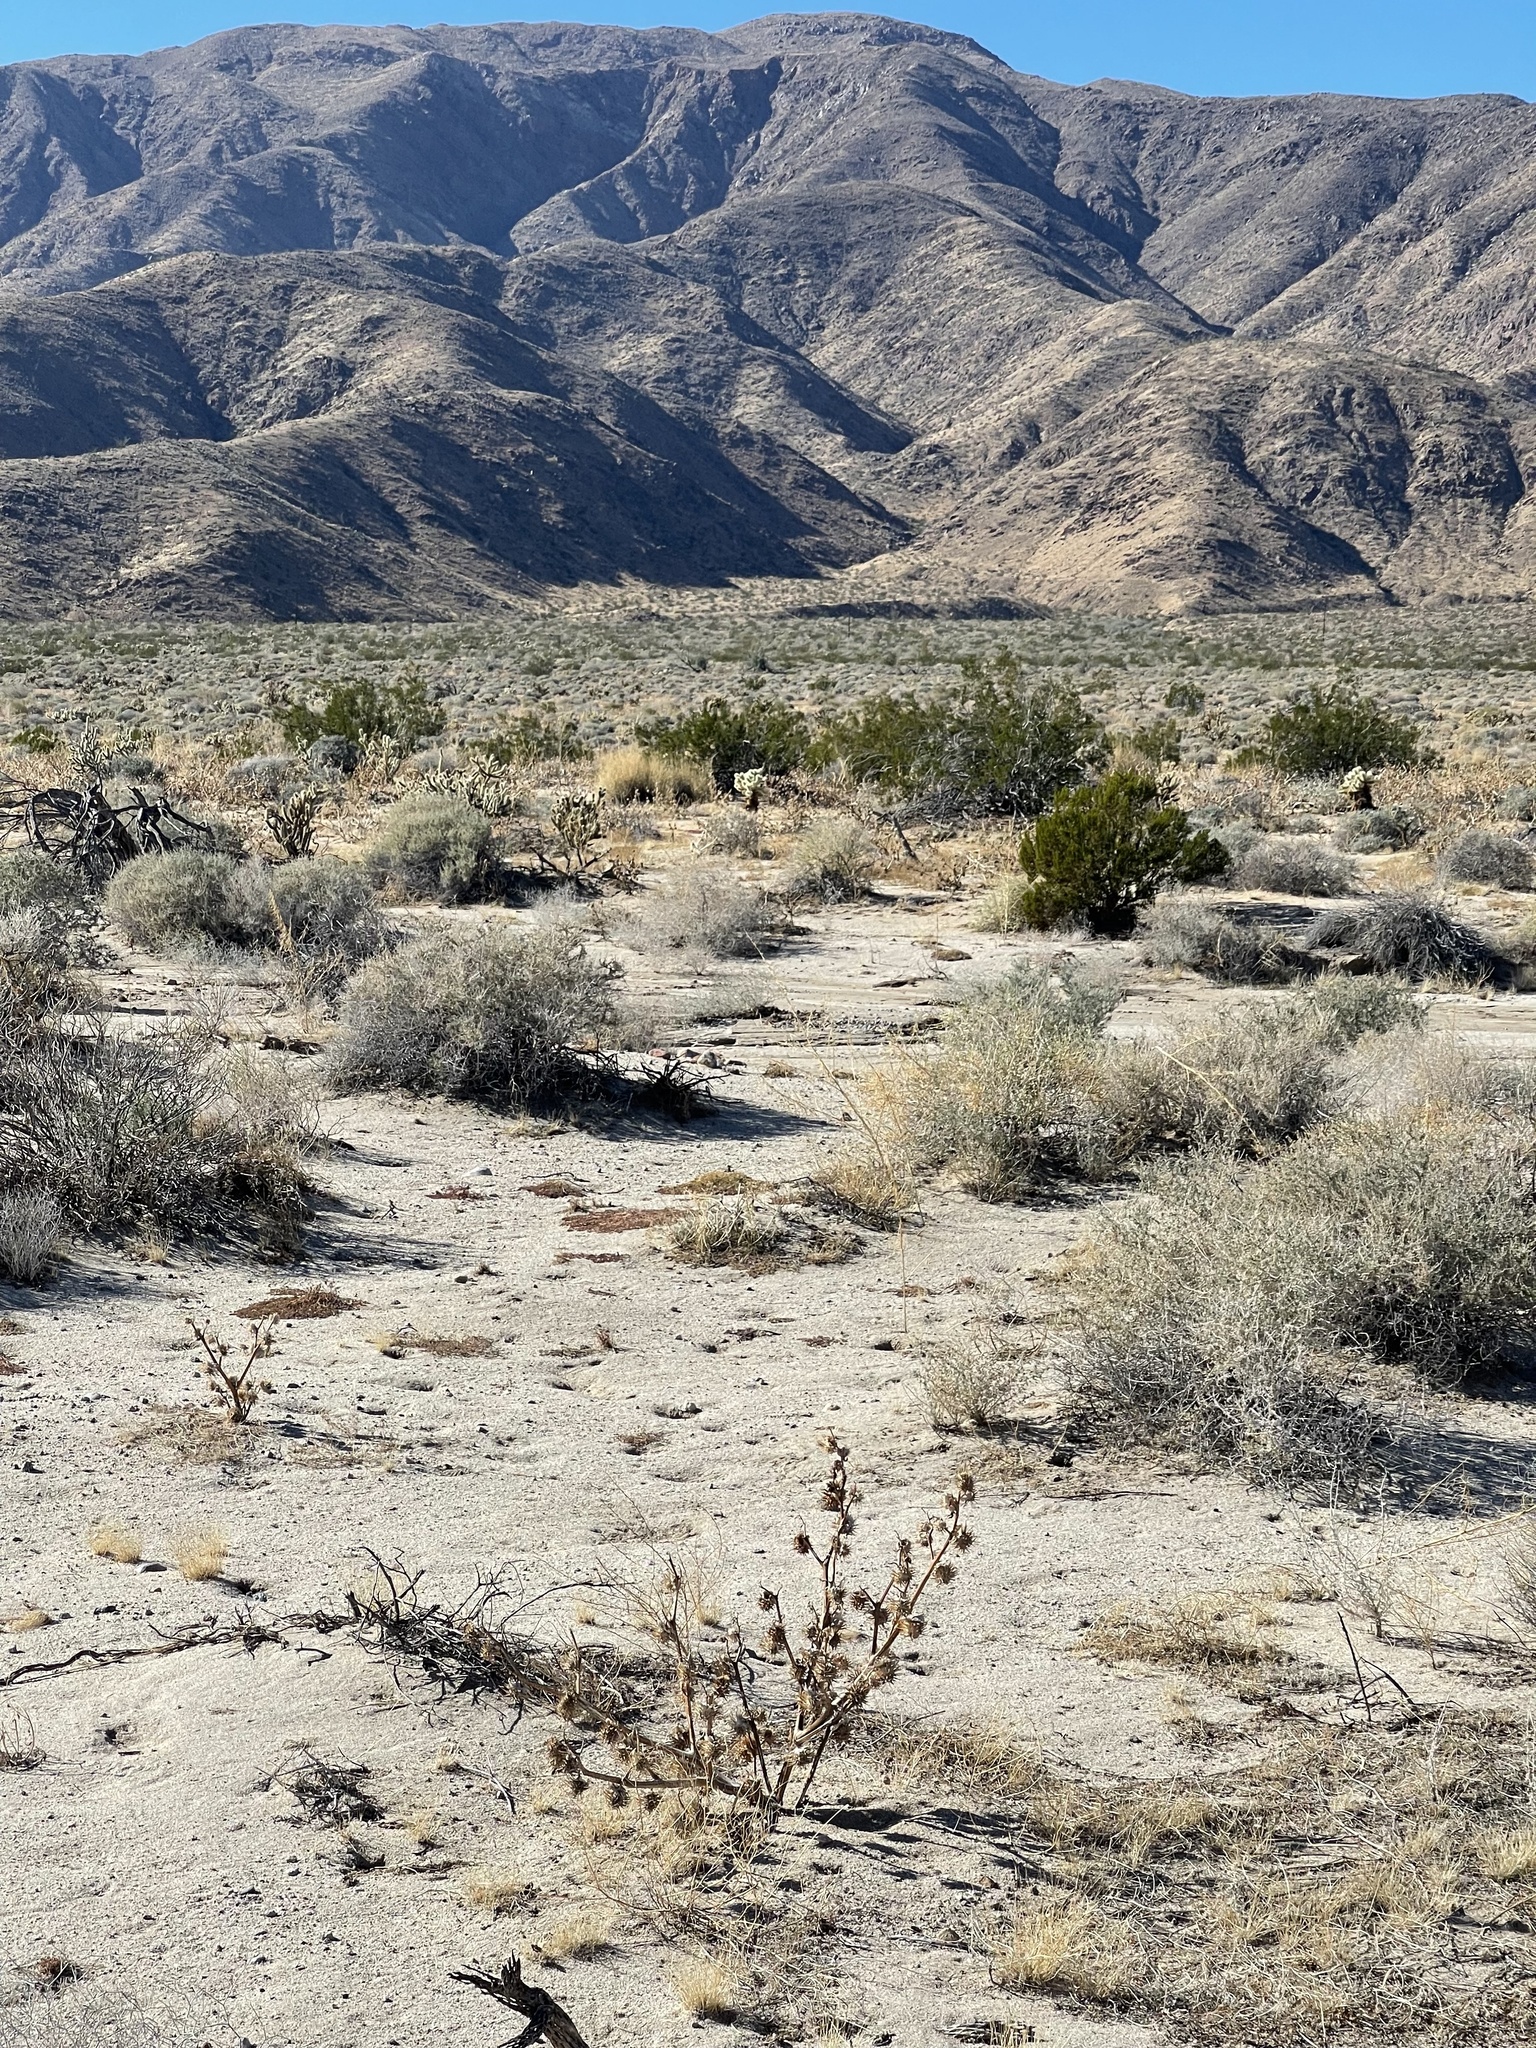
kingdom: Plantae
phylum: Tracheophyta
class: Magnoliopsida
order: Fabales
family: Fabaceae
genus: Dalea
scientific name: Dalea mollissima
